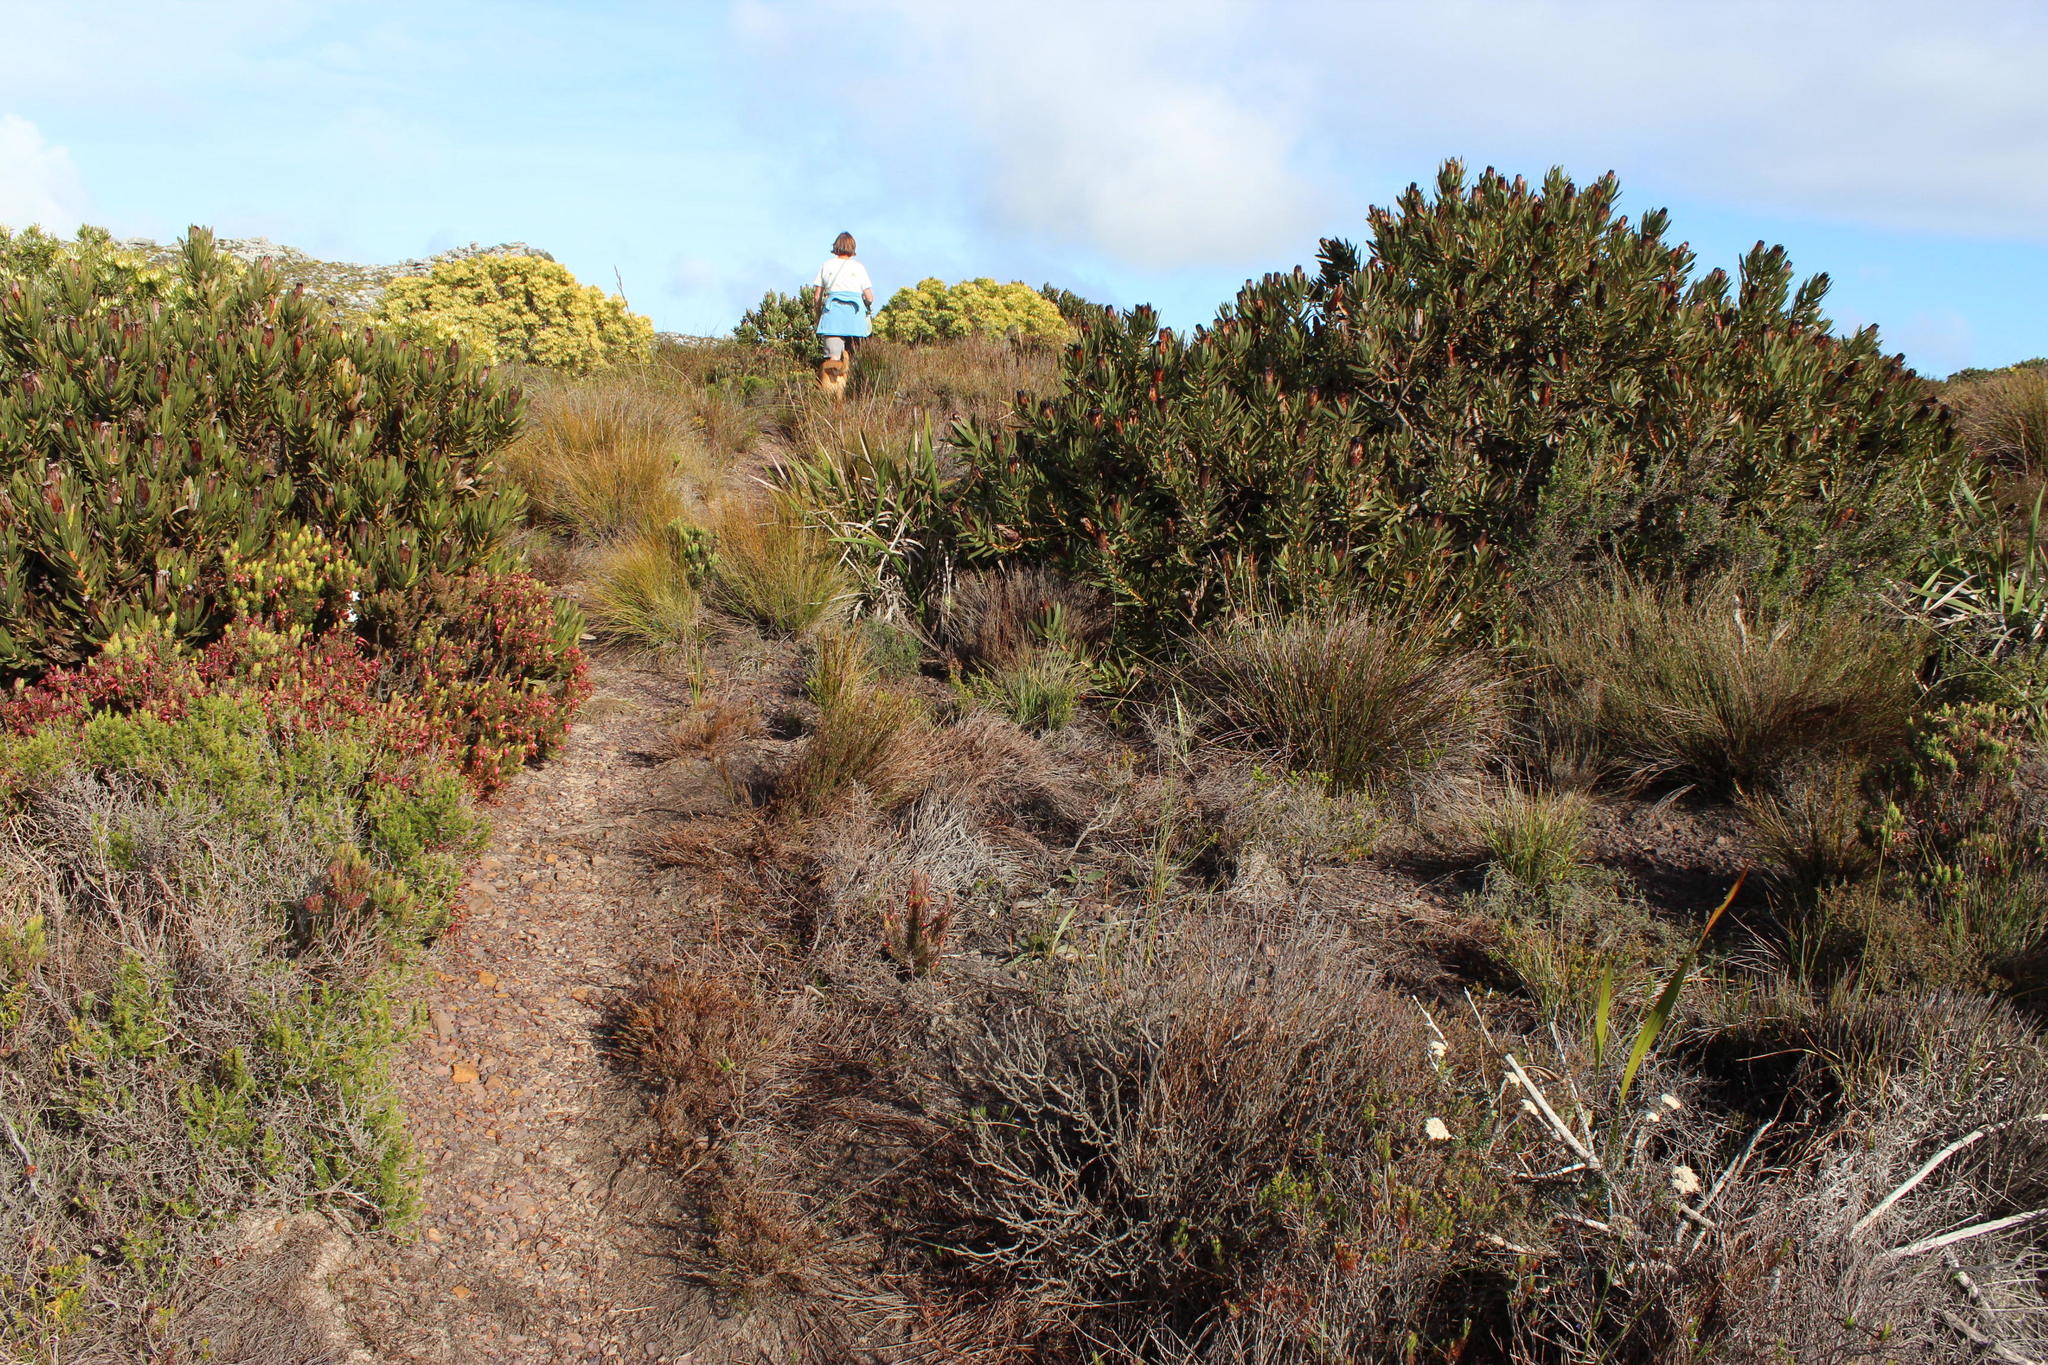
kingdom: Plantae
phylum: Tracheophyta
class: Magnoliopsida
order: Proteales
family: Proteaceae
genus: Protea
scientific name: Protea lepidocarpodendron
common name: Black-bearded protea
